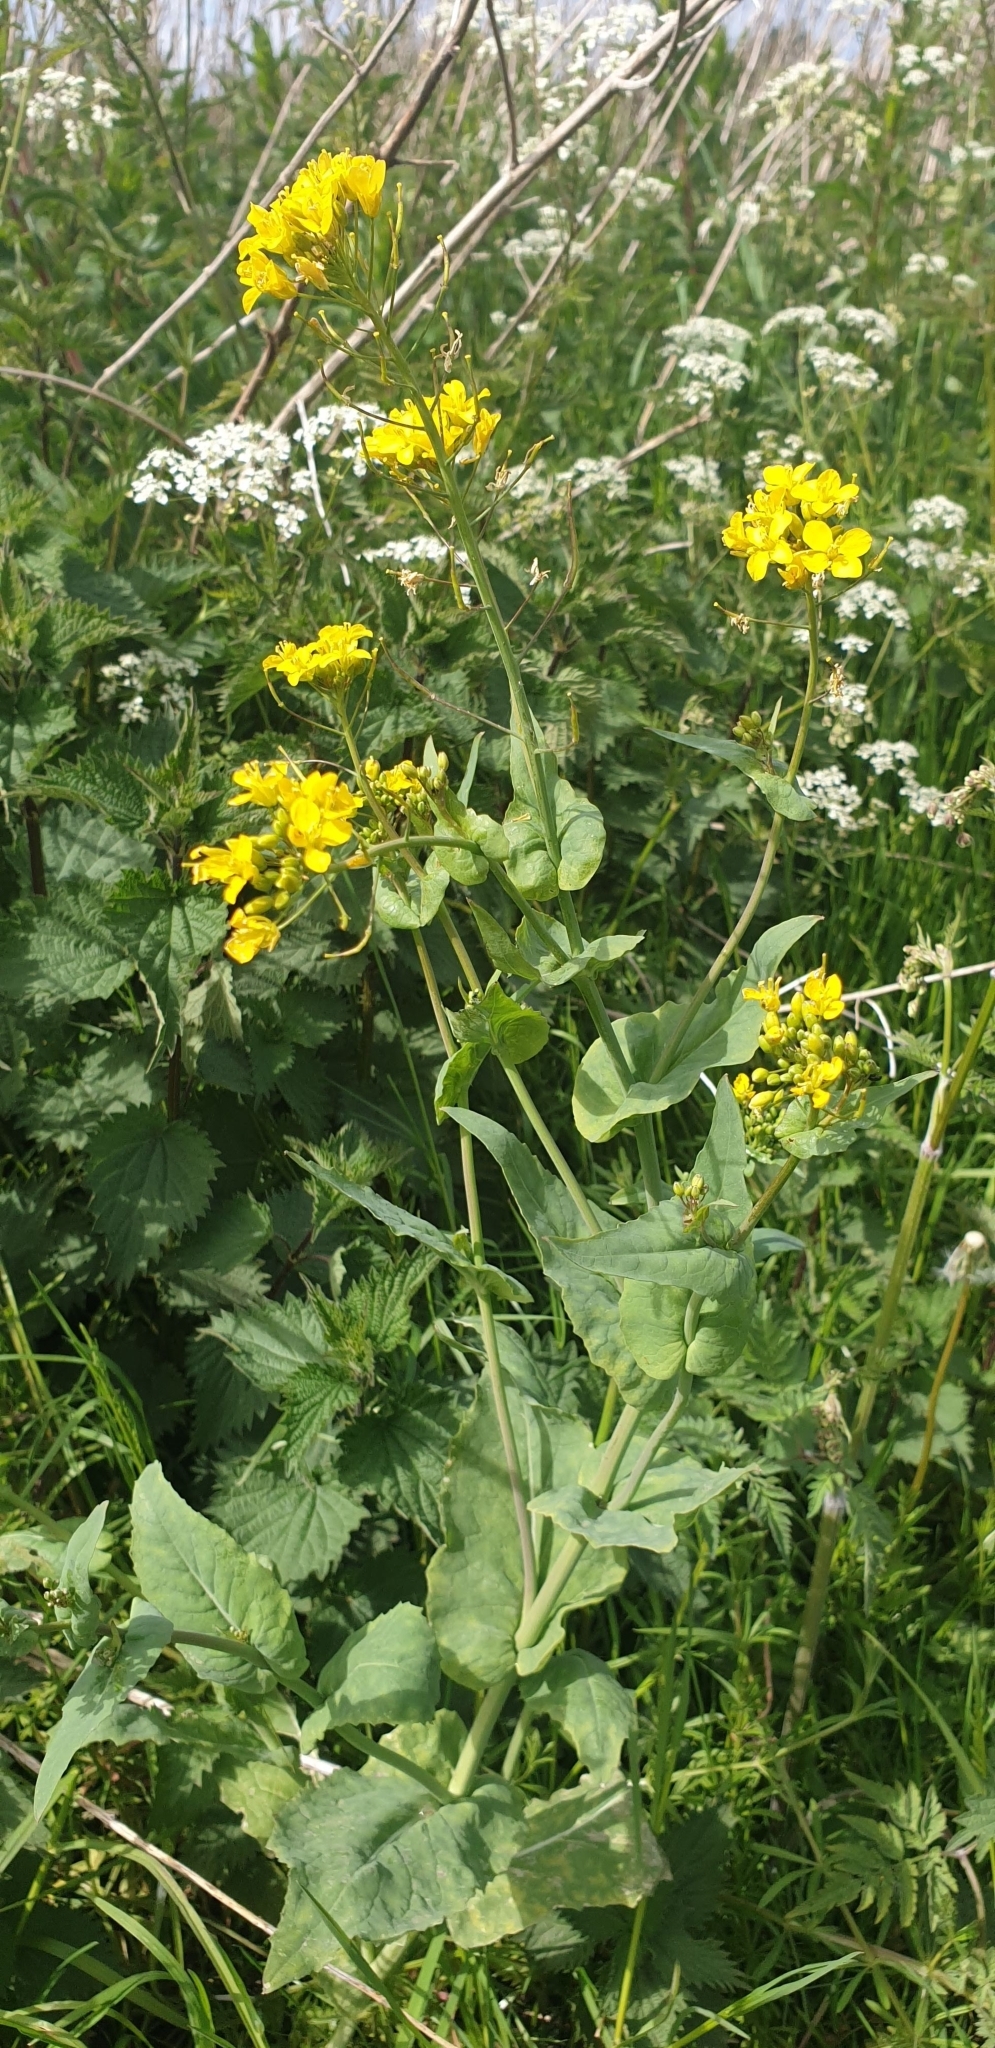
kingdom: Plantae
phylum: Tracheophyta
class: Magnoliopsida
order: Brassicales
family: Brassicaceae
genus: Brassica
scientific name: Brassica rapa
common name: Field mustard
